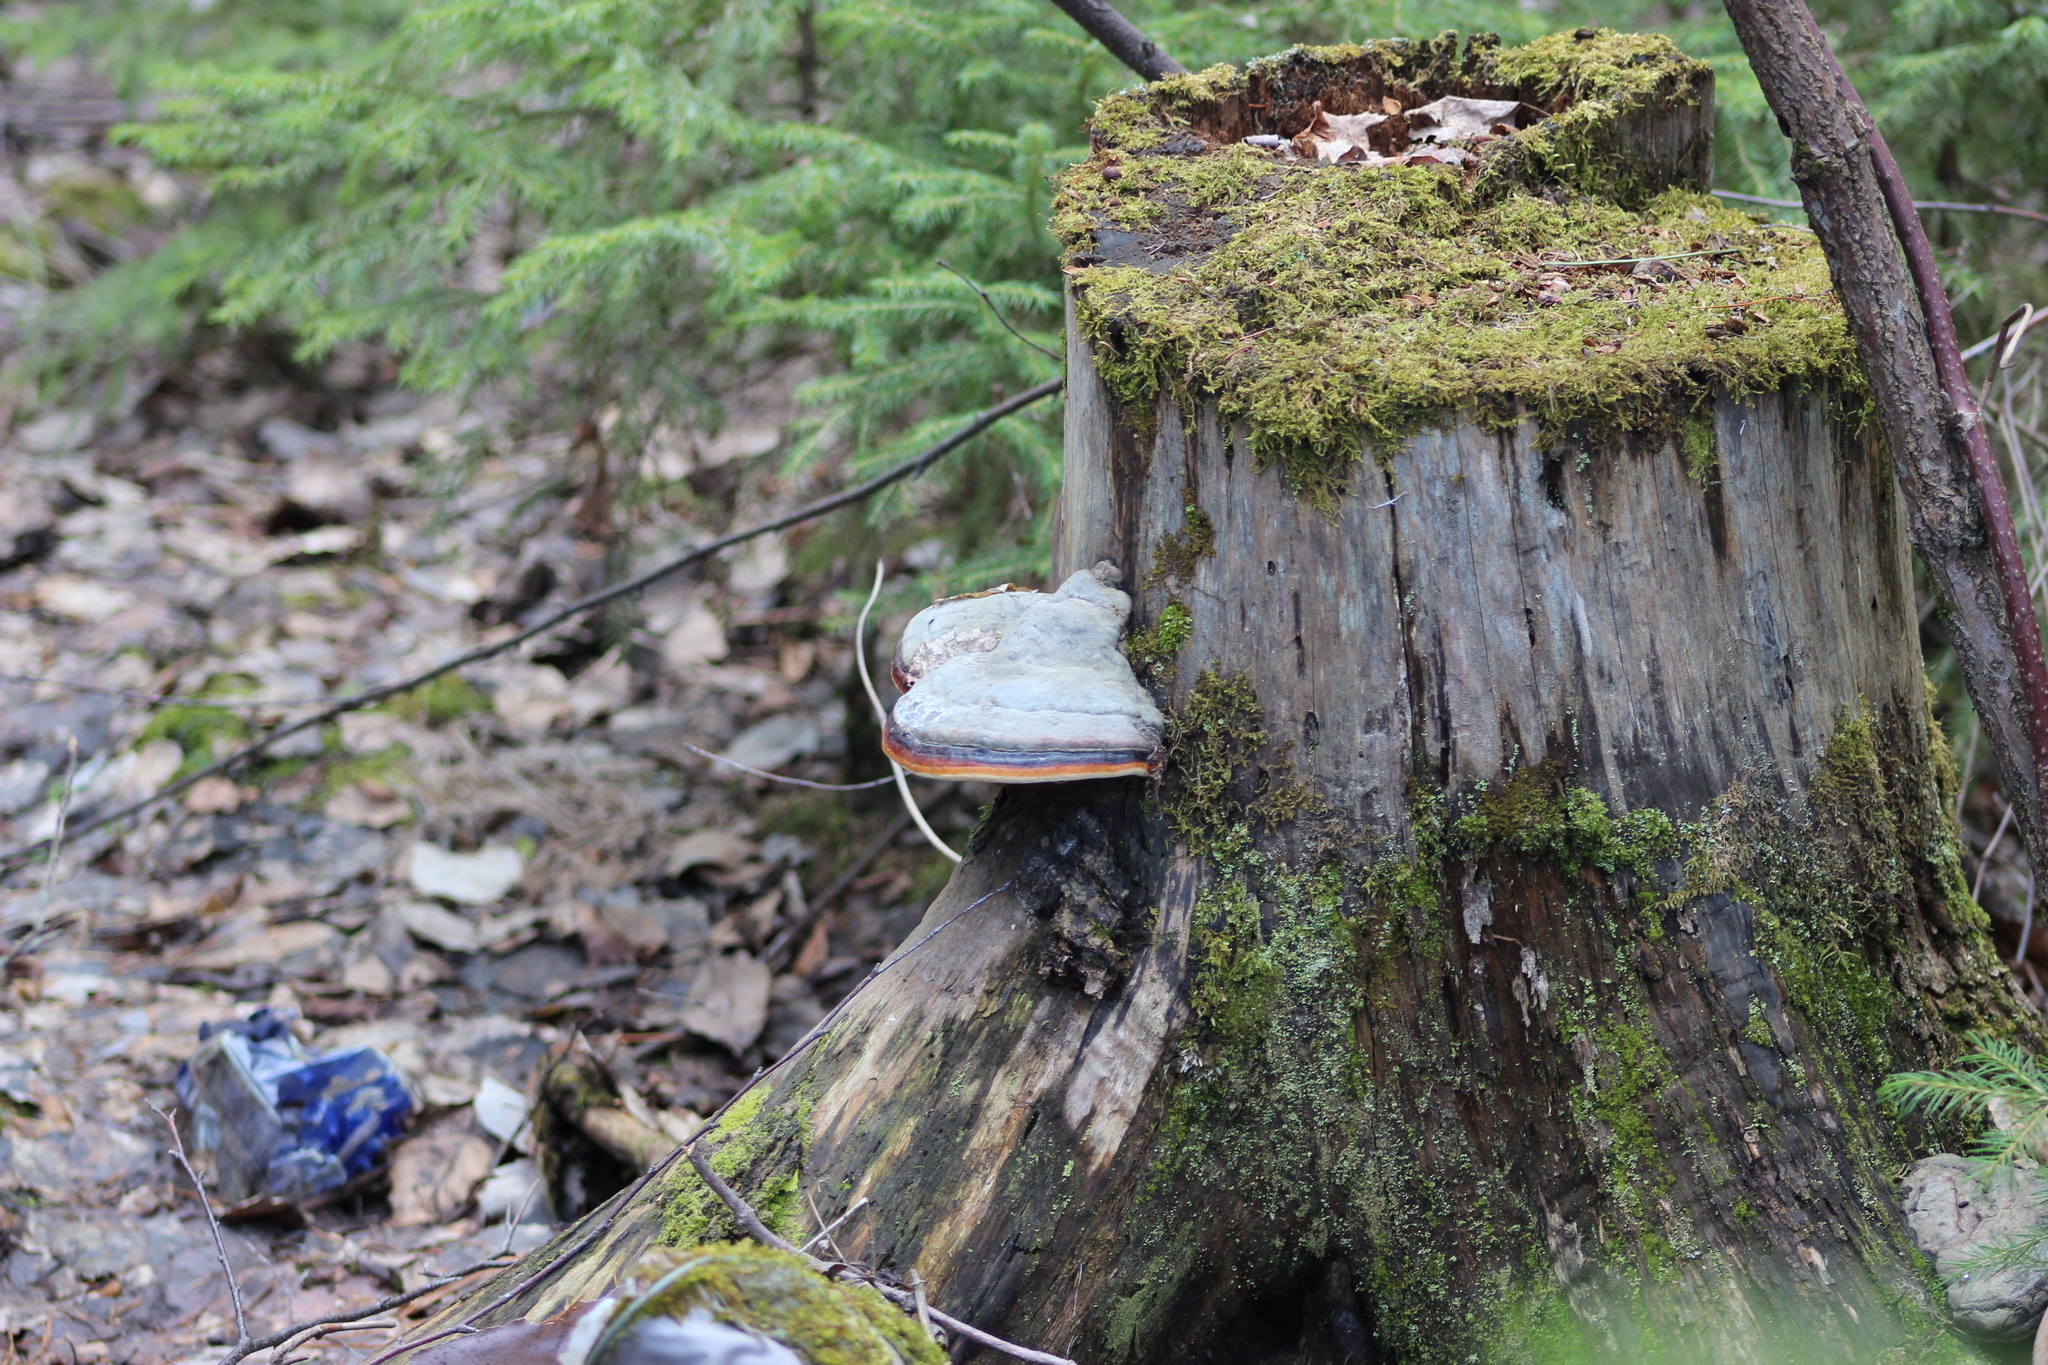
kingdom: Fungi
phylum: Basidiomycota
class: Agaricomycetes
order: Polyporales
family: Fomitopsidaceae
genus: Fomitopsis
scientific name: Fomitopsis pinicola
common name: Red-belted bracket
